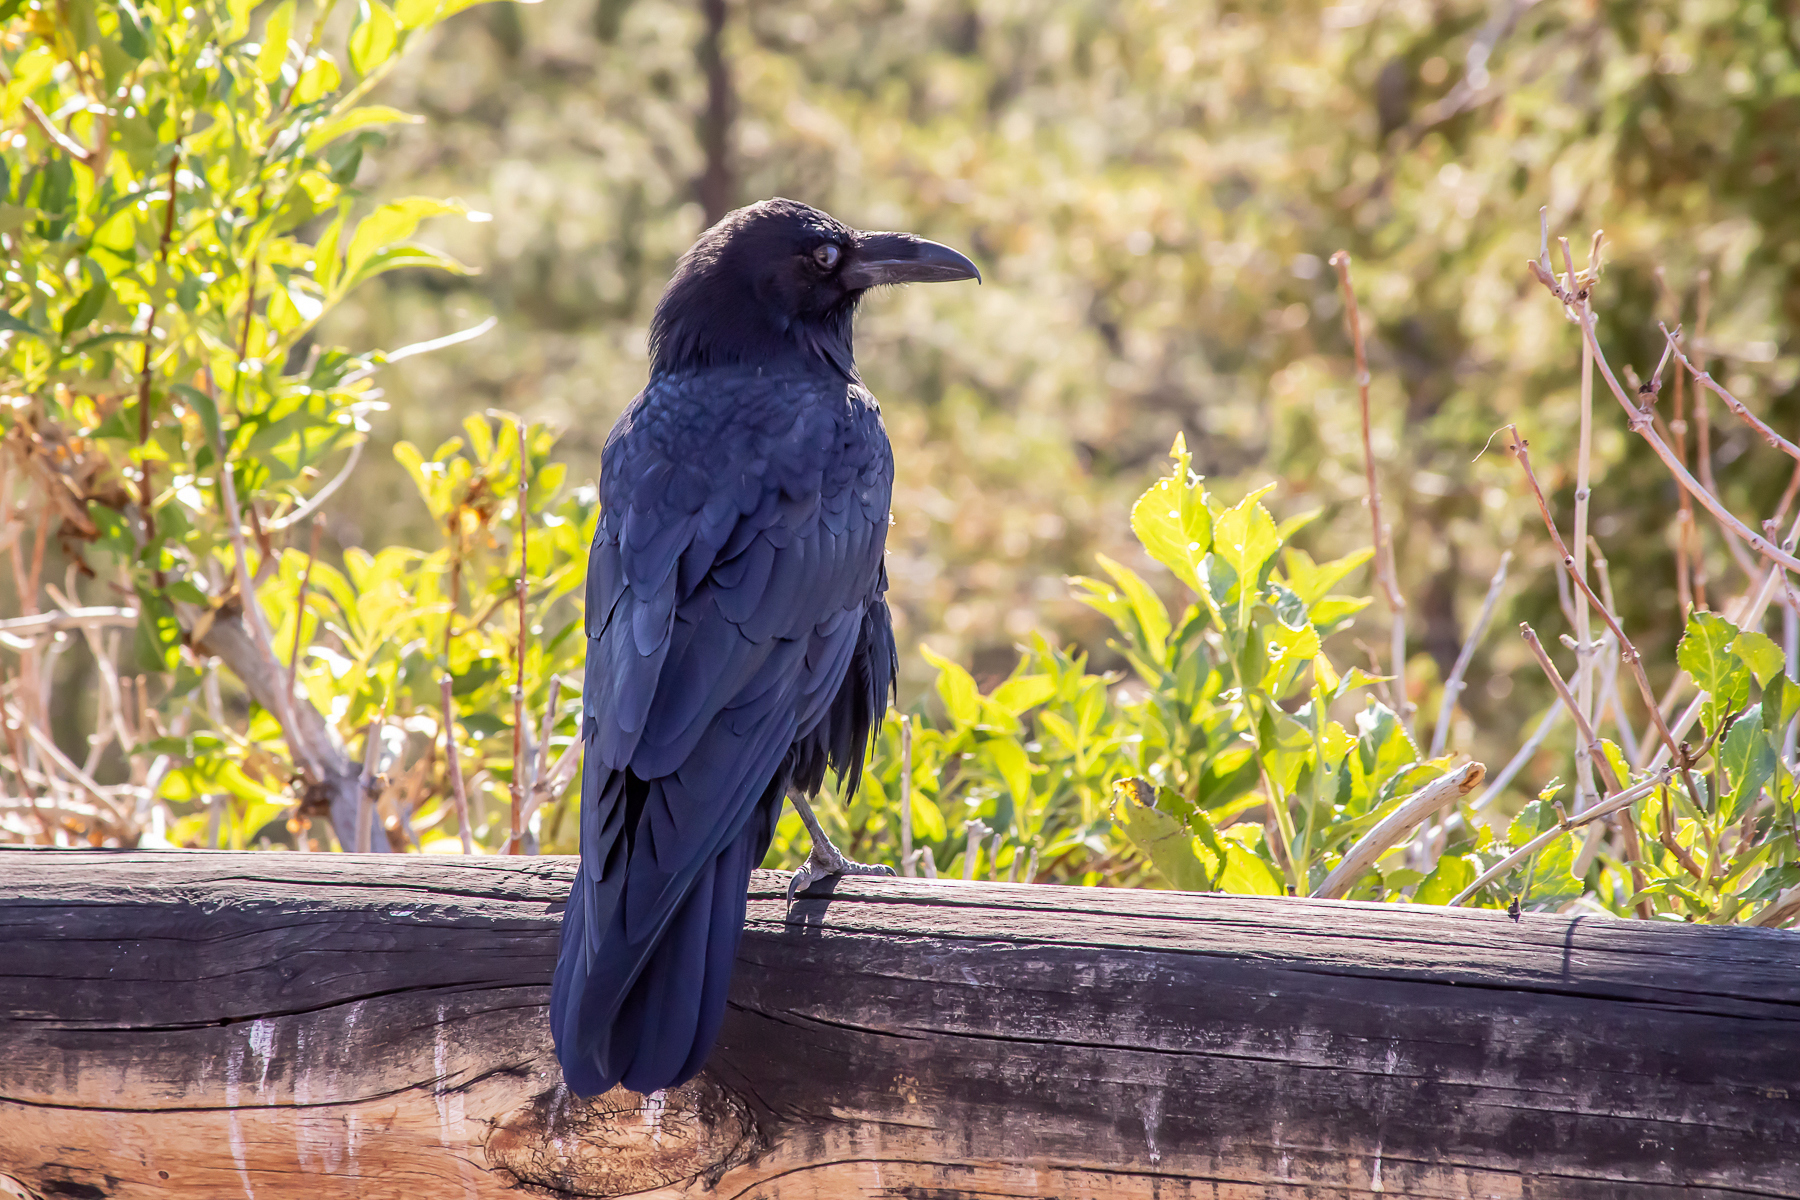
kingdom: Animalia
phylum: Chordata
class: Aves
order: Passeriformes
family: Corvidae
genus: Corvus
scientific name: Corvus corax
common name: Common raven
